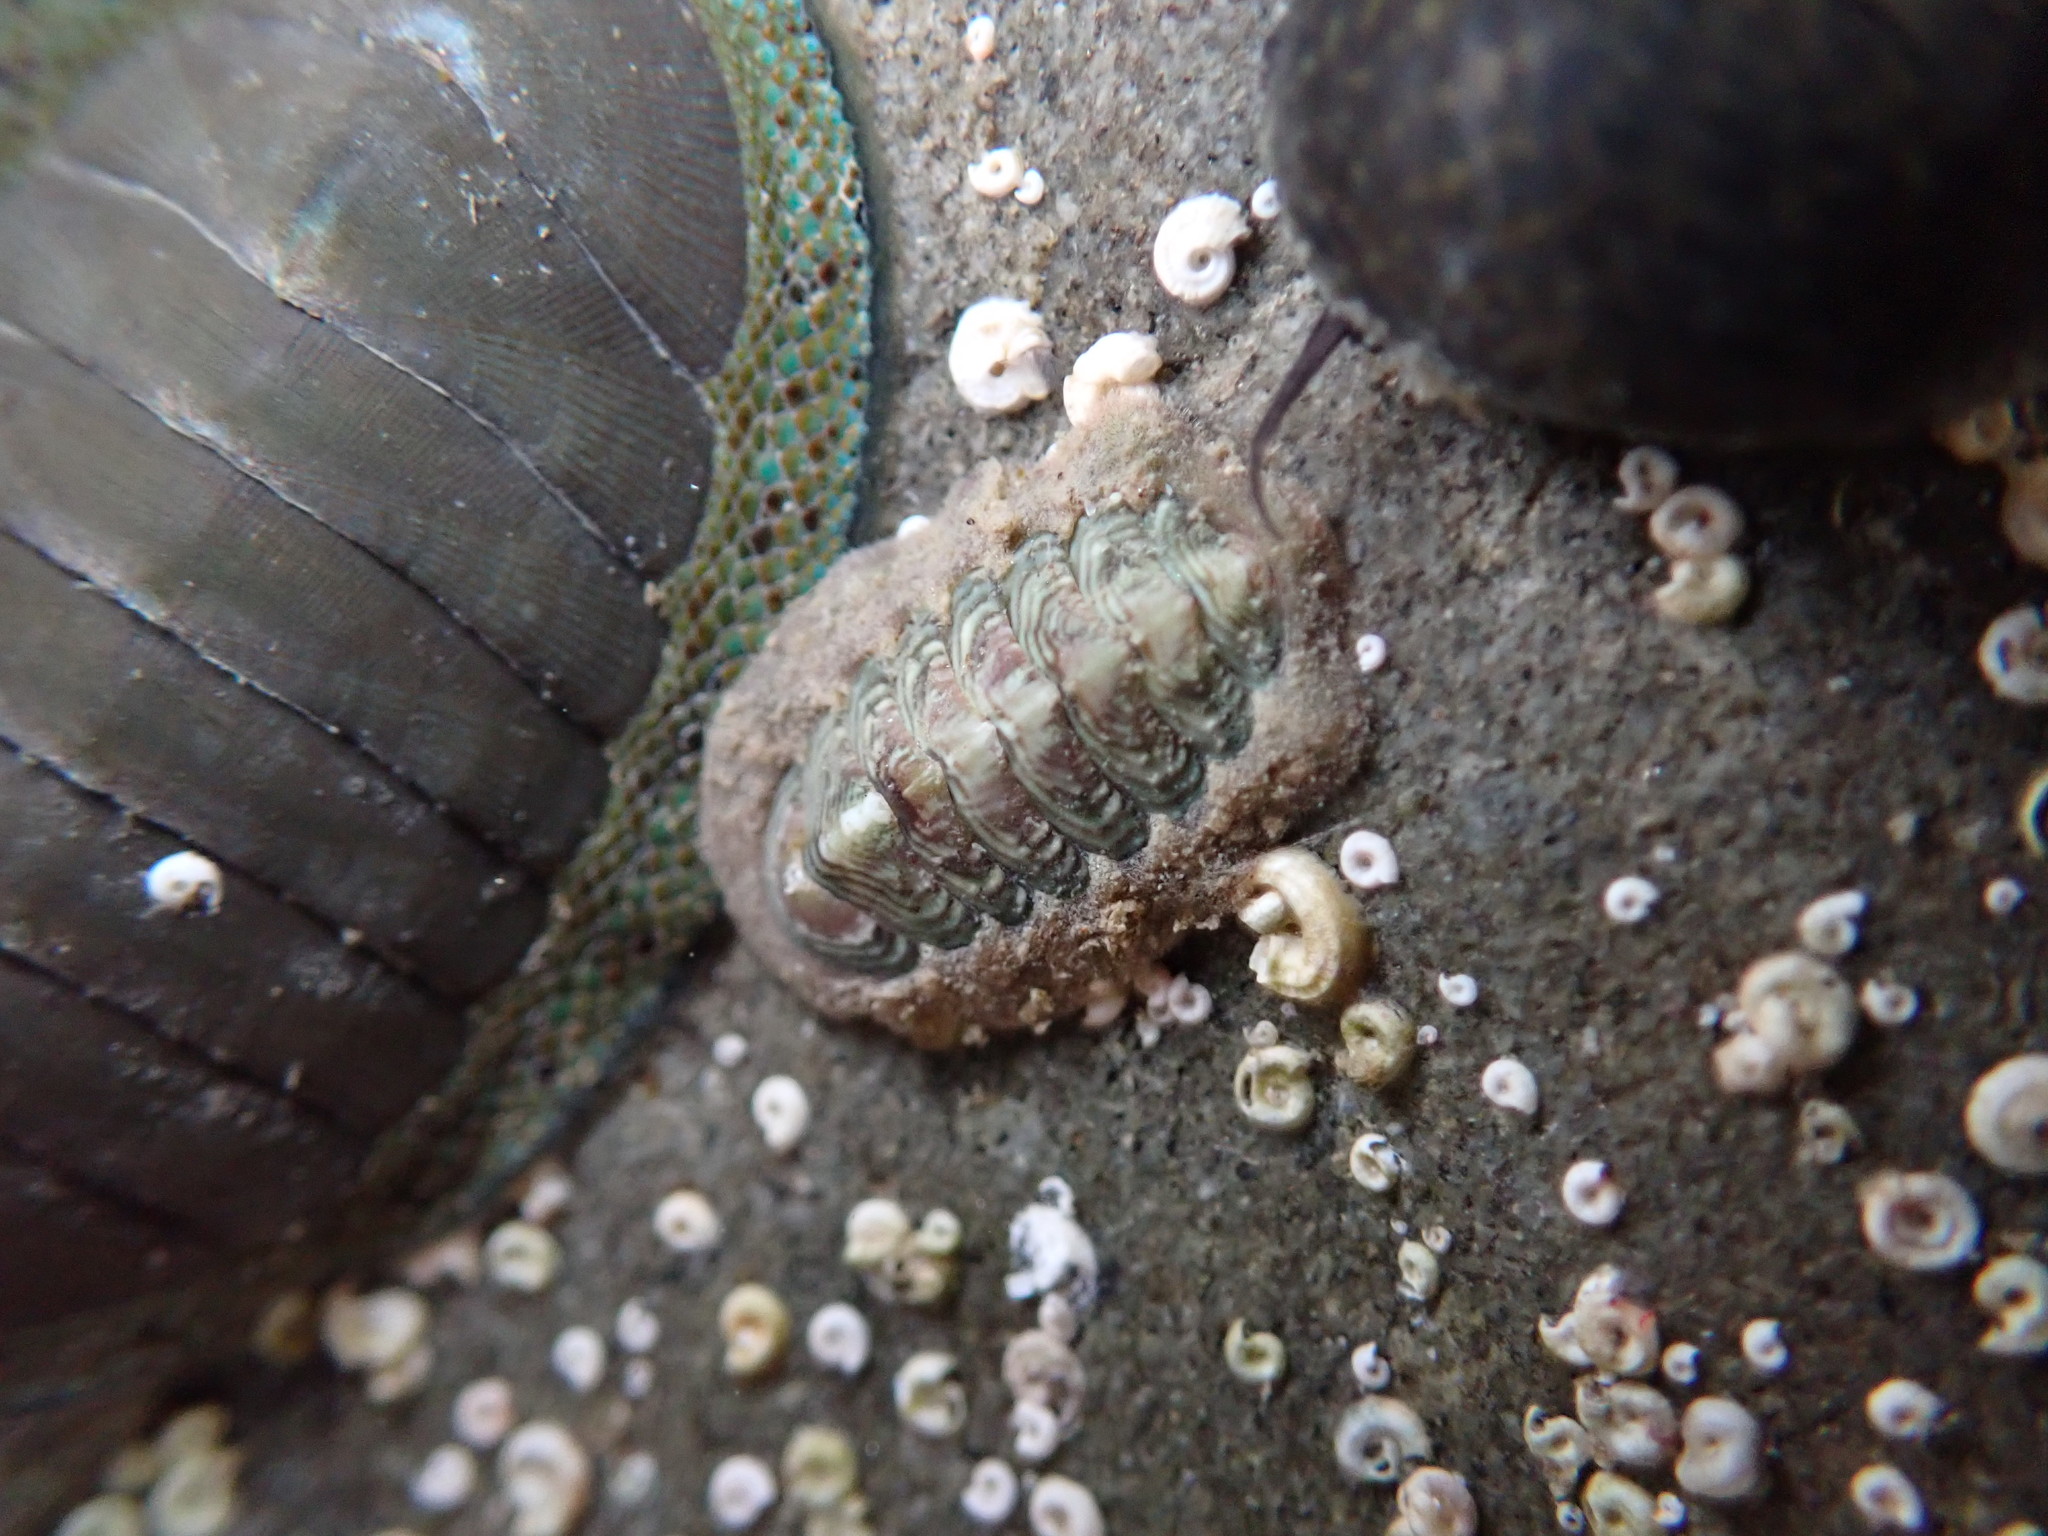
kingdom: Animalia
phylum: Mollusca
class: Polyplacophora
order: Chitonida
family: Chitonidae
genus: Onithochiton
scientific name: Onithochiton neglectus
